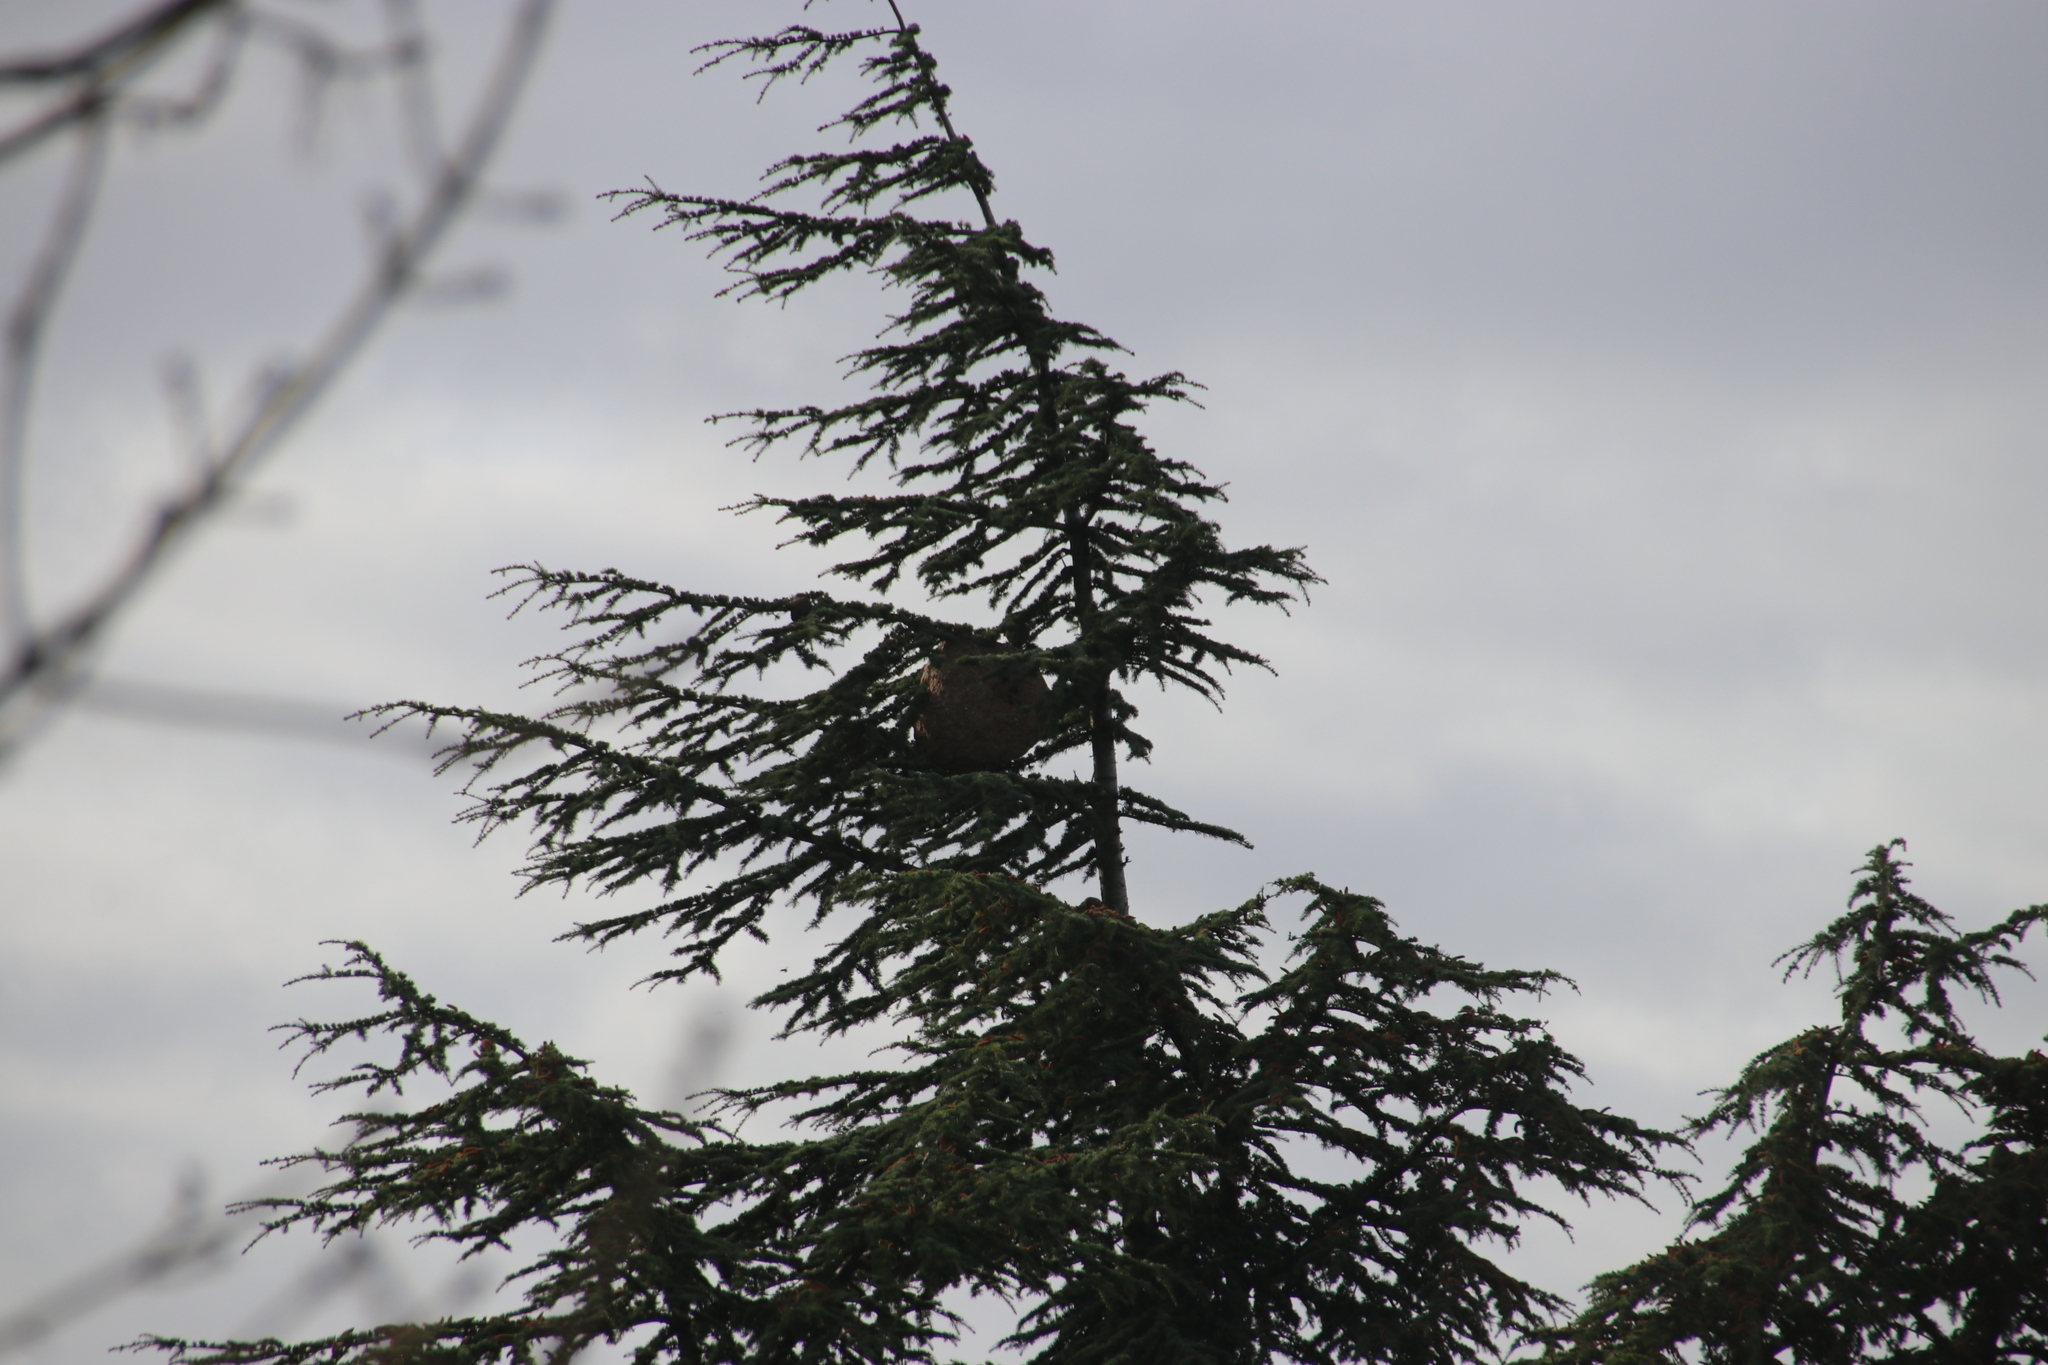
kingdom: Animalia
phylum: Arthropoda
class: Insecta
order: Hymenoptera
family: Vespidae
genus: Vespa
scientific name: Vespa velutina
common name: Asian hornet
